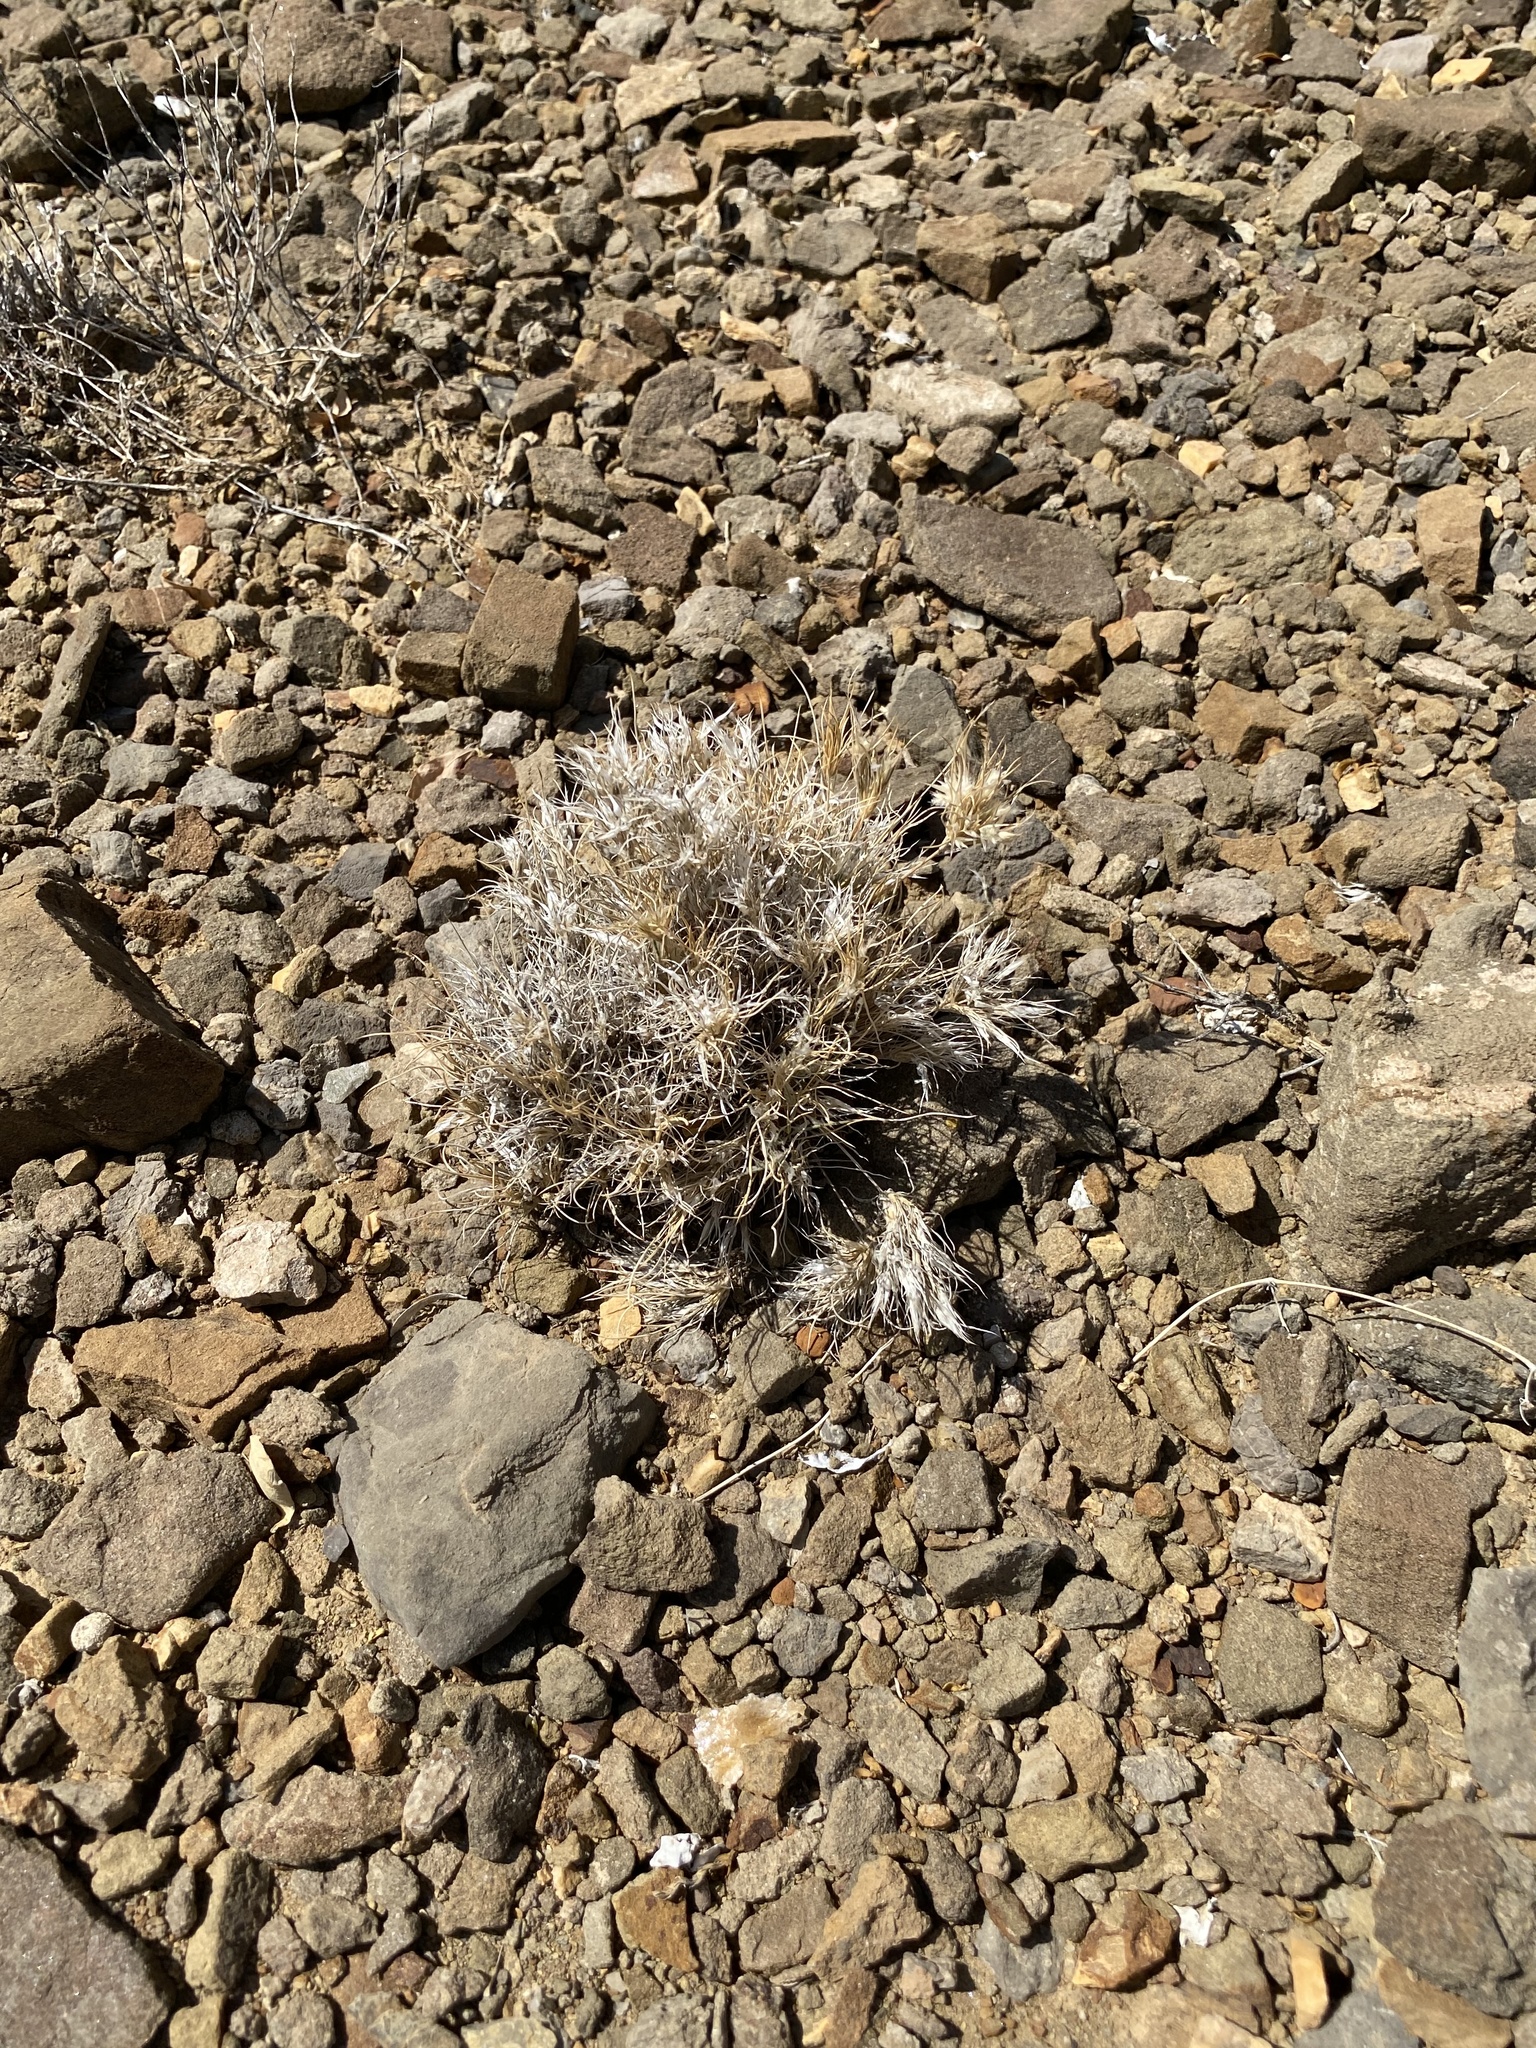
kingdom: Plantae
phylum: Tracheophyta
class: Liliopsida
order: Poales
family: Poaceae
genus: Dasyochloa
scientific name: Dasyochloa pulchella
